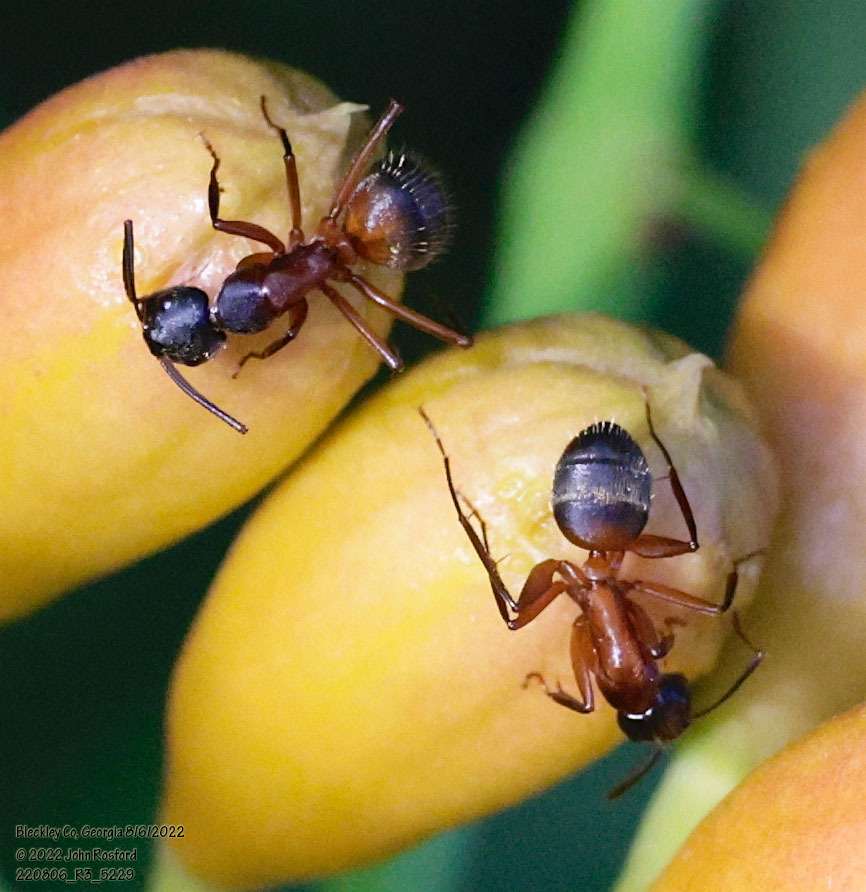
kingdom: Animalia
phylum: Arthropoda
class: Insecta
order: Hymenoptera
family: Formicidae
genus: Camponotus
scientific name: Camponotus chromaiodes
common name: Red carpenter ant
